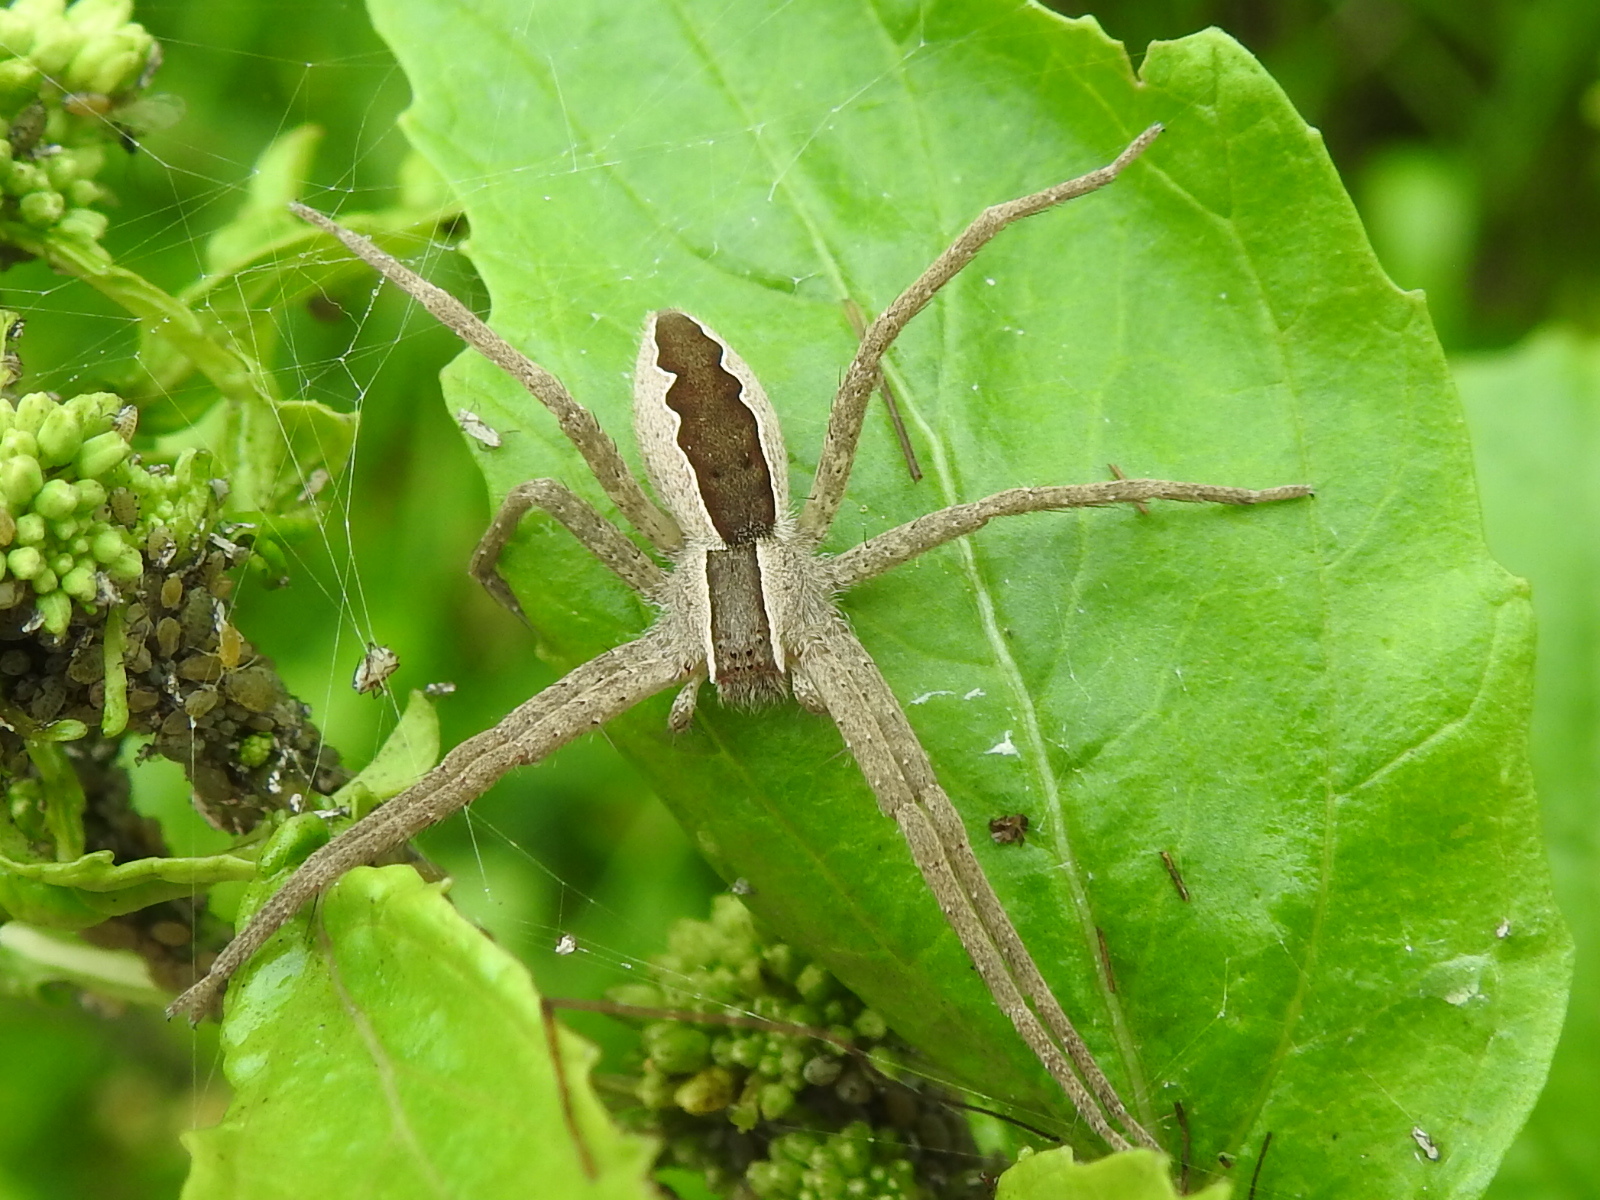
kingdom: Animalia
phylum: Arthropoda
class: Arachnida
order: Araneae
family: Pisauridae
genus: Pisaurina
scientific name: Pisaurina mira
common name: American nursery web spider
